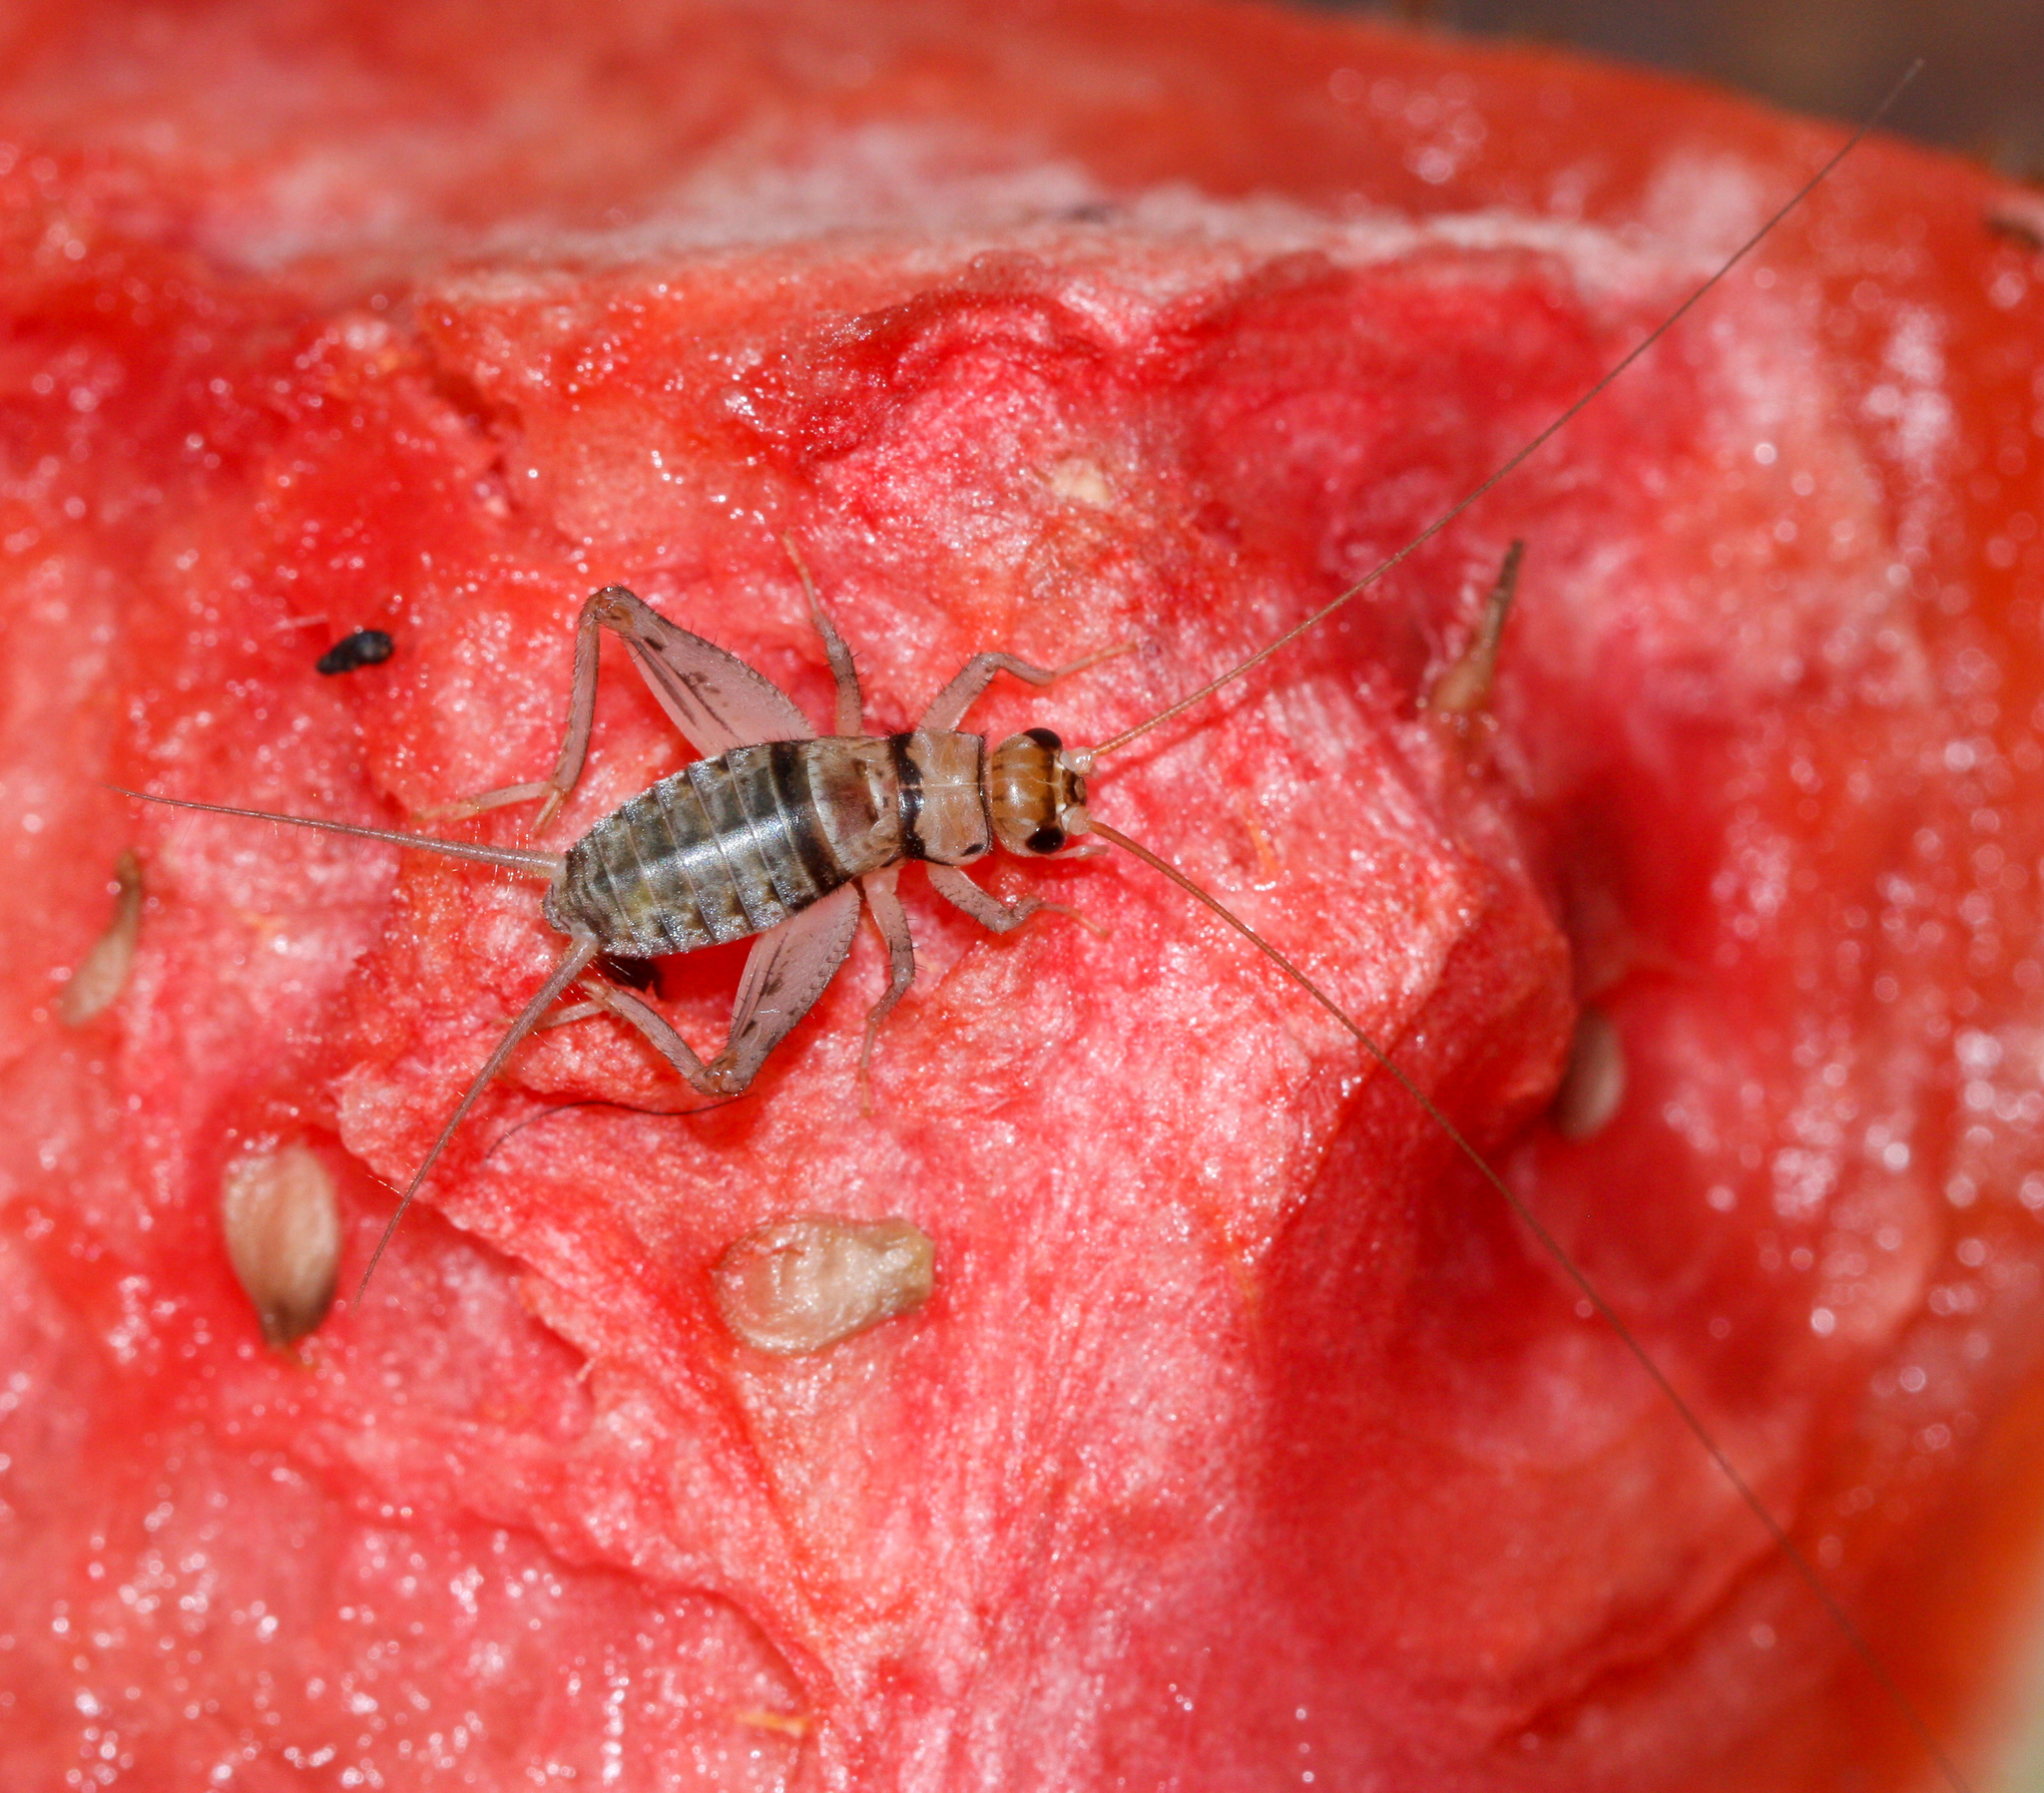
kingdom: Animalia
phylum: Arthropoda
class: Insecta
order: Orthoptera
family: Gryllidae
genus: Gryllodes
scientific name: Gryllodes sigillatus
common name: Tropical house cricket
